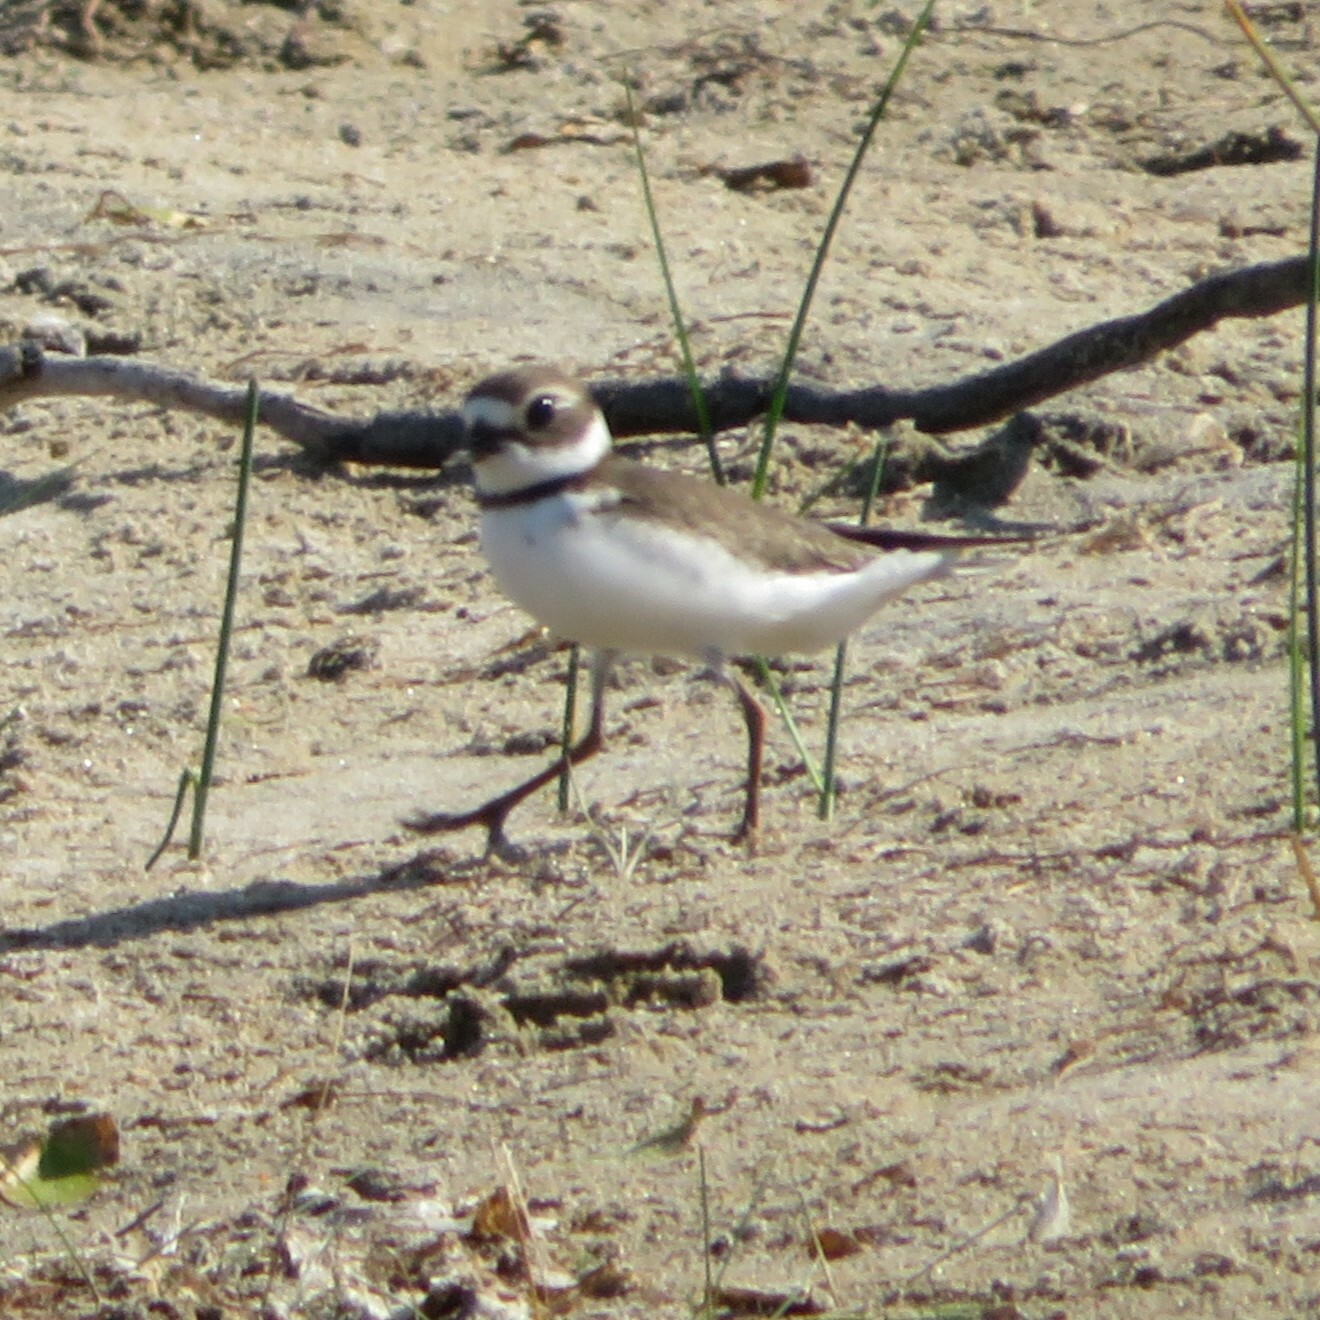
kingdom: Animalia
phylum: Chordata
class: Aves
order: Charadriiformes
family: Charadriidae
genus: Charadrius
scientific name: Charadrius semipalmatus
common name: Semipalmated plover
